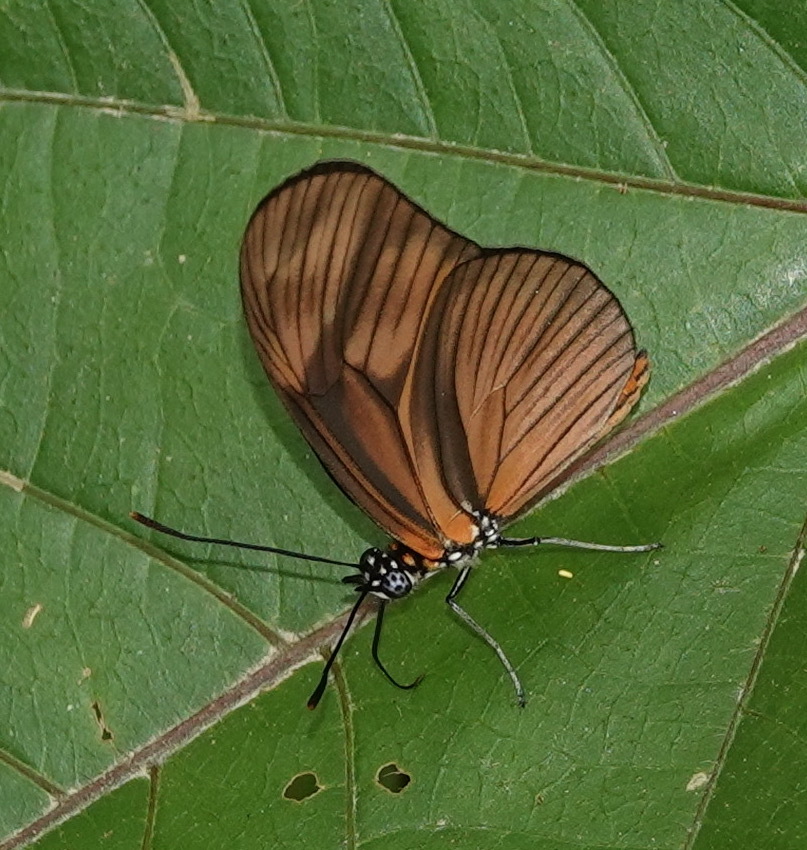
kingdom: Animalia
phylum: Arthropoda
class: Insecta
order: Lepidoptera
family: Nymphalidae
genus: Heliconius
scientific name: Heliconius aliphera
